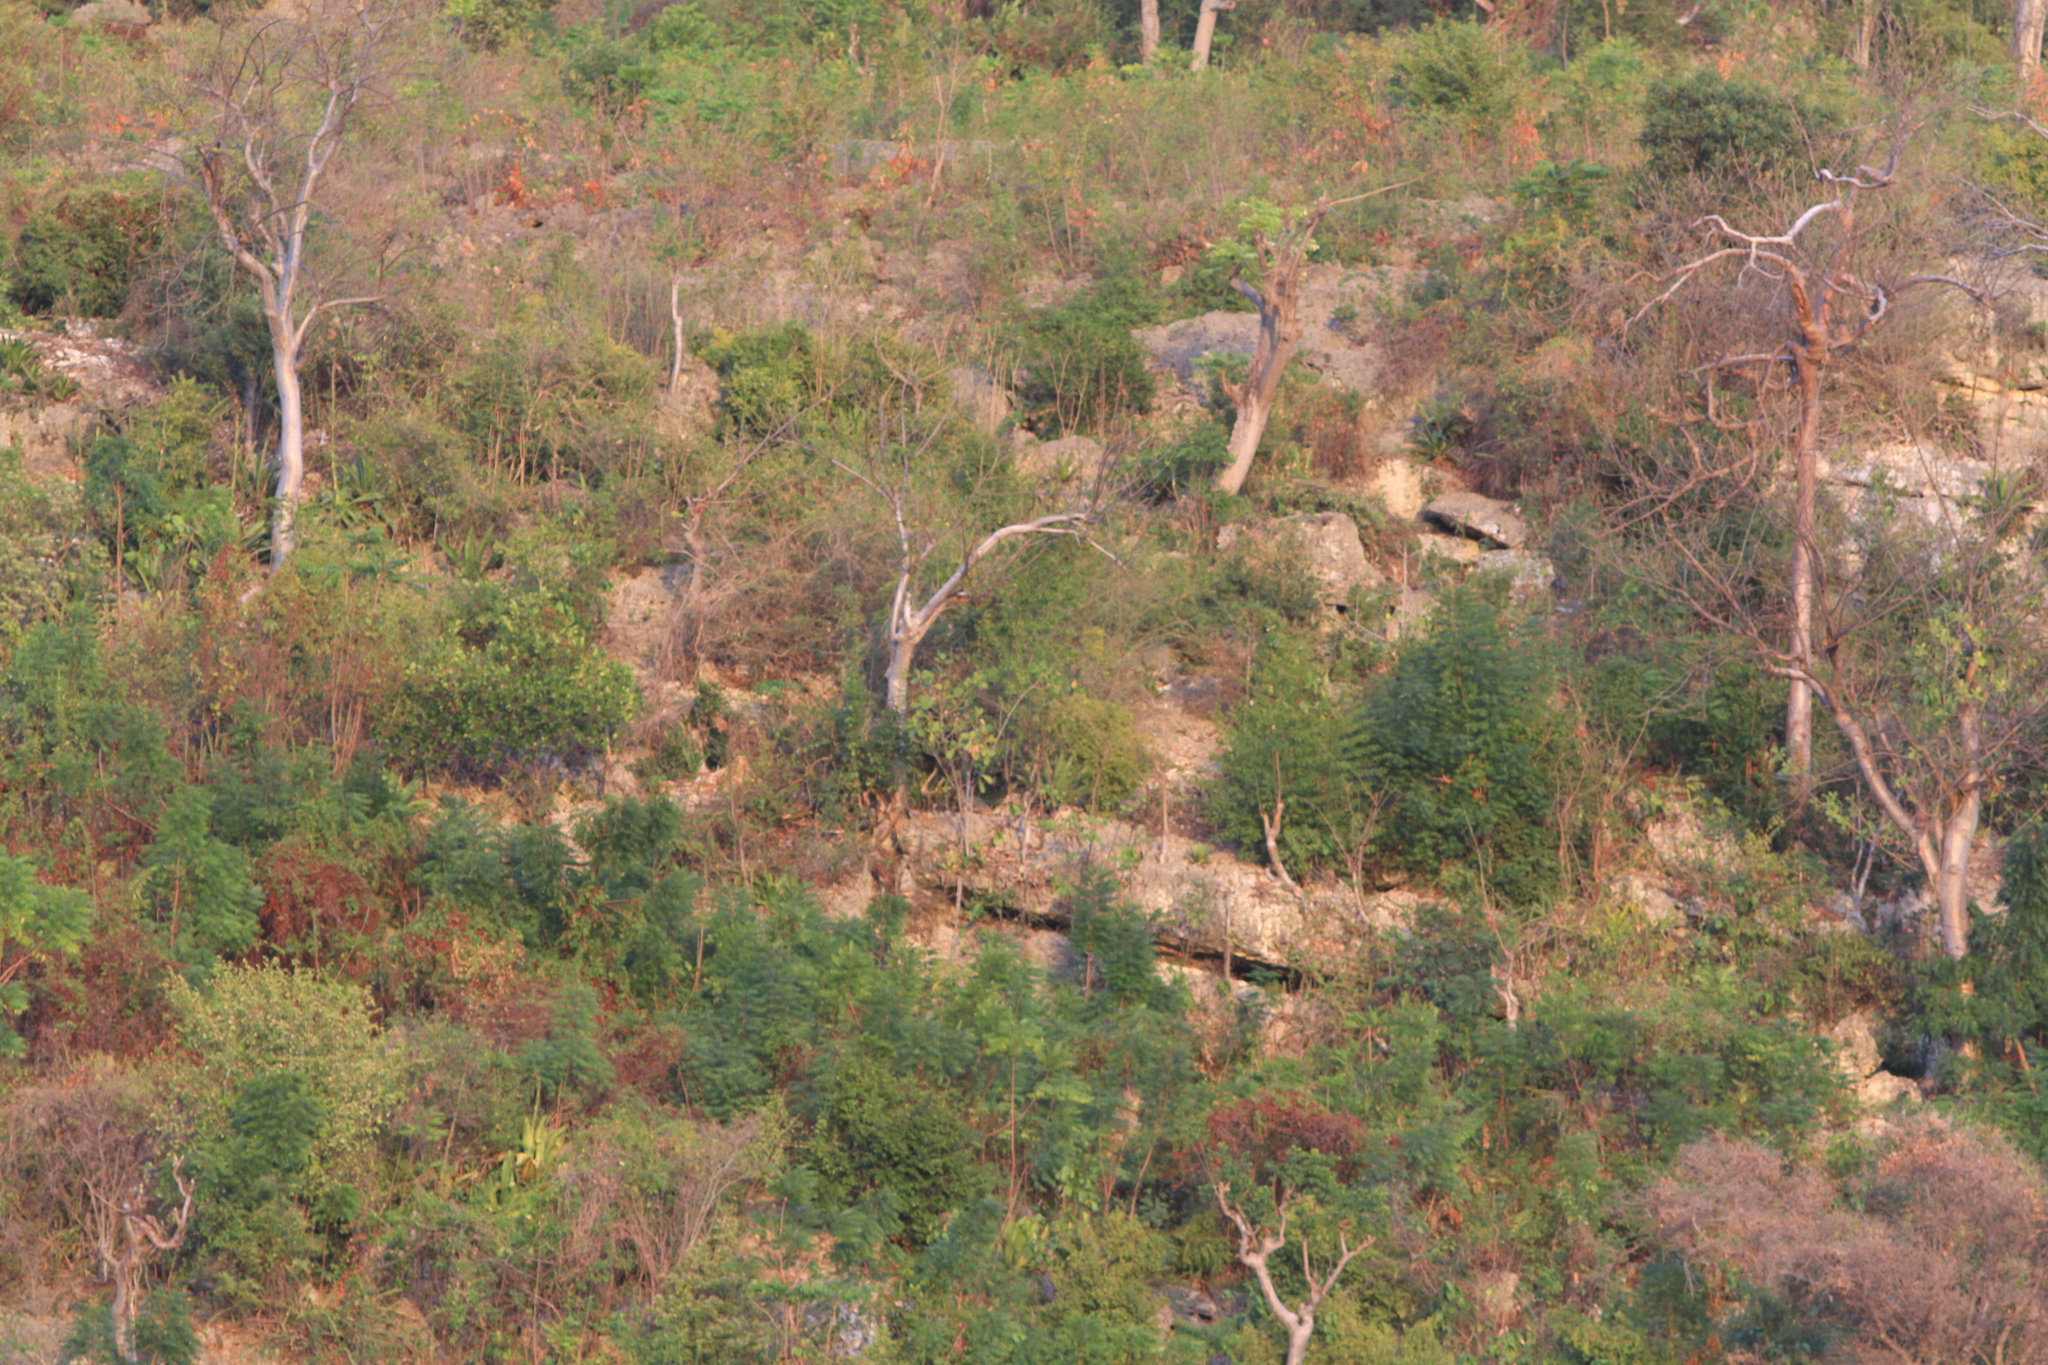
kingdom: Plantae
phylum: Tracheophyta
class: Magnoliopsida
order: Sapindales
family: Burseraceae
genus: Bursera
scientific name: Bursera simaruba
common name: Turpentine tree
